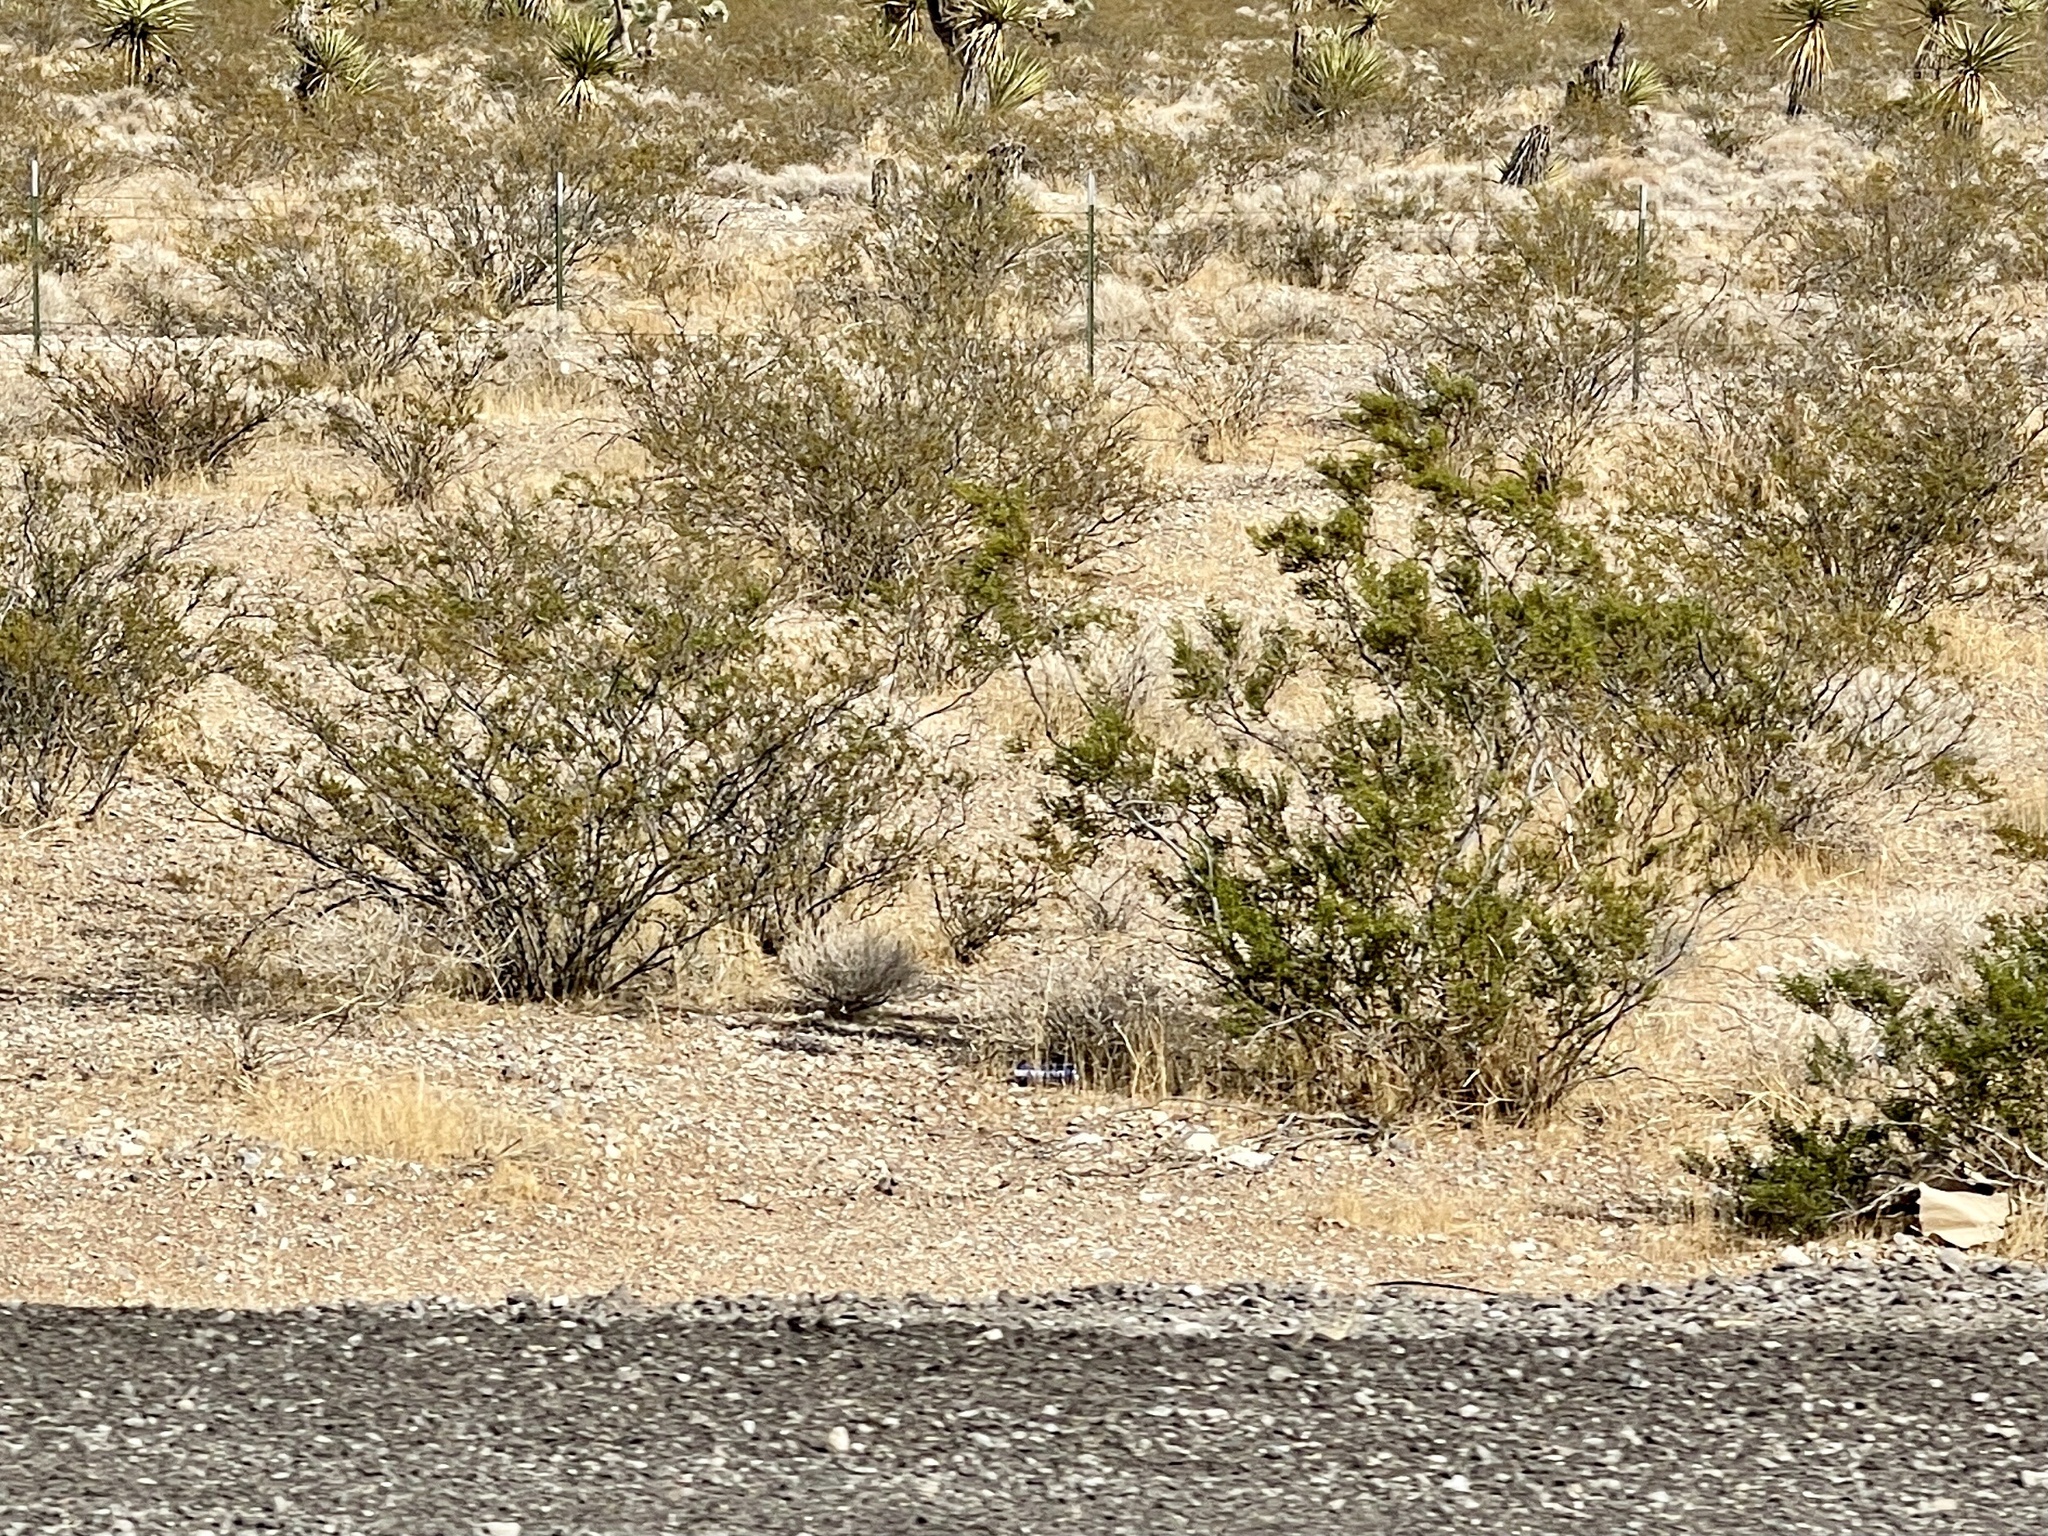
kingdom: Plantae
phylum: Tracheophyta
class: Magnoliopsida
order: Zygophyllales
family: Zygophyllaceae
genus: Larrea
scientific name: Larrea tridentata
